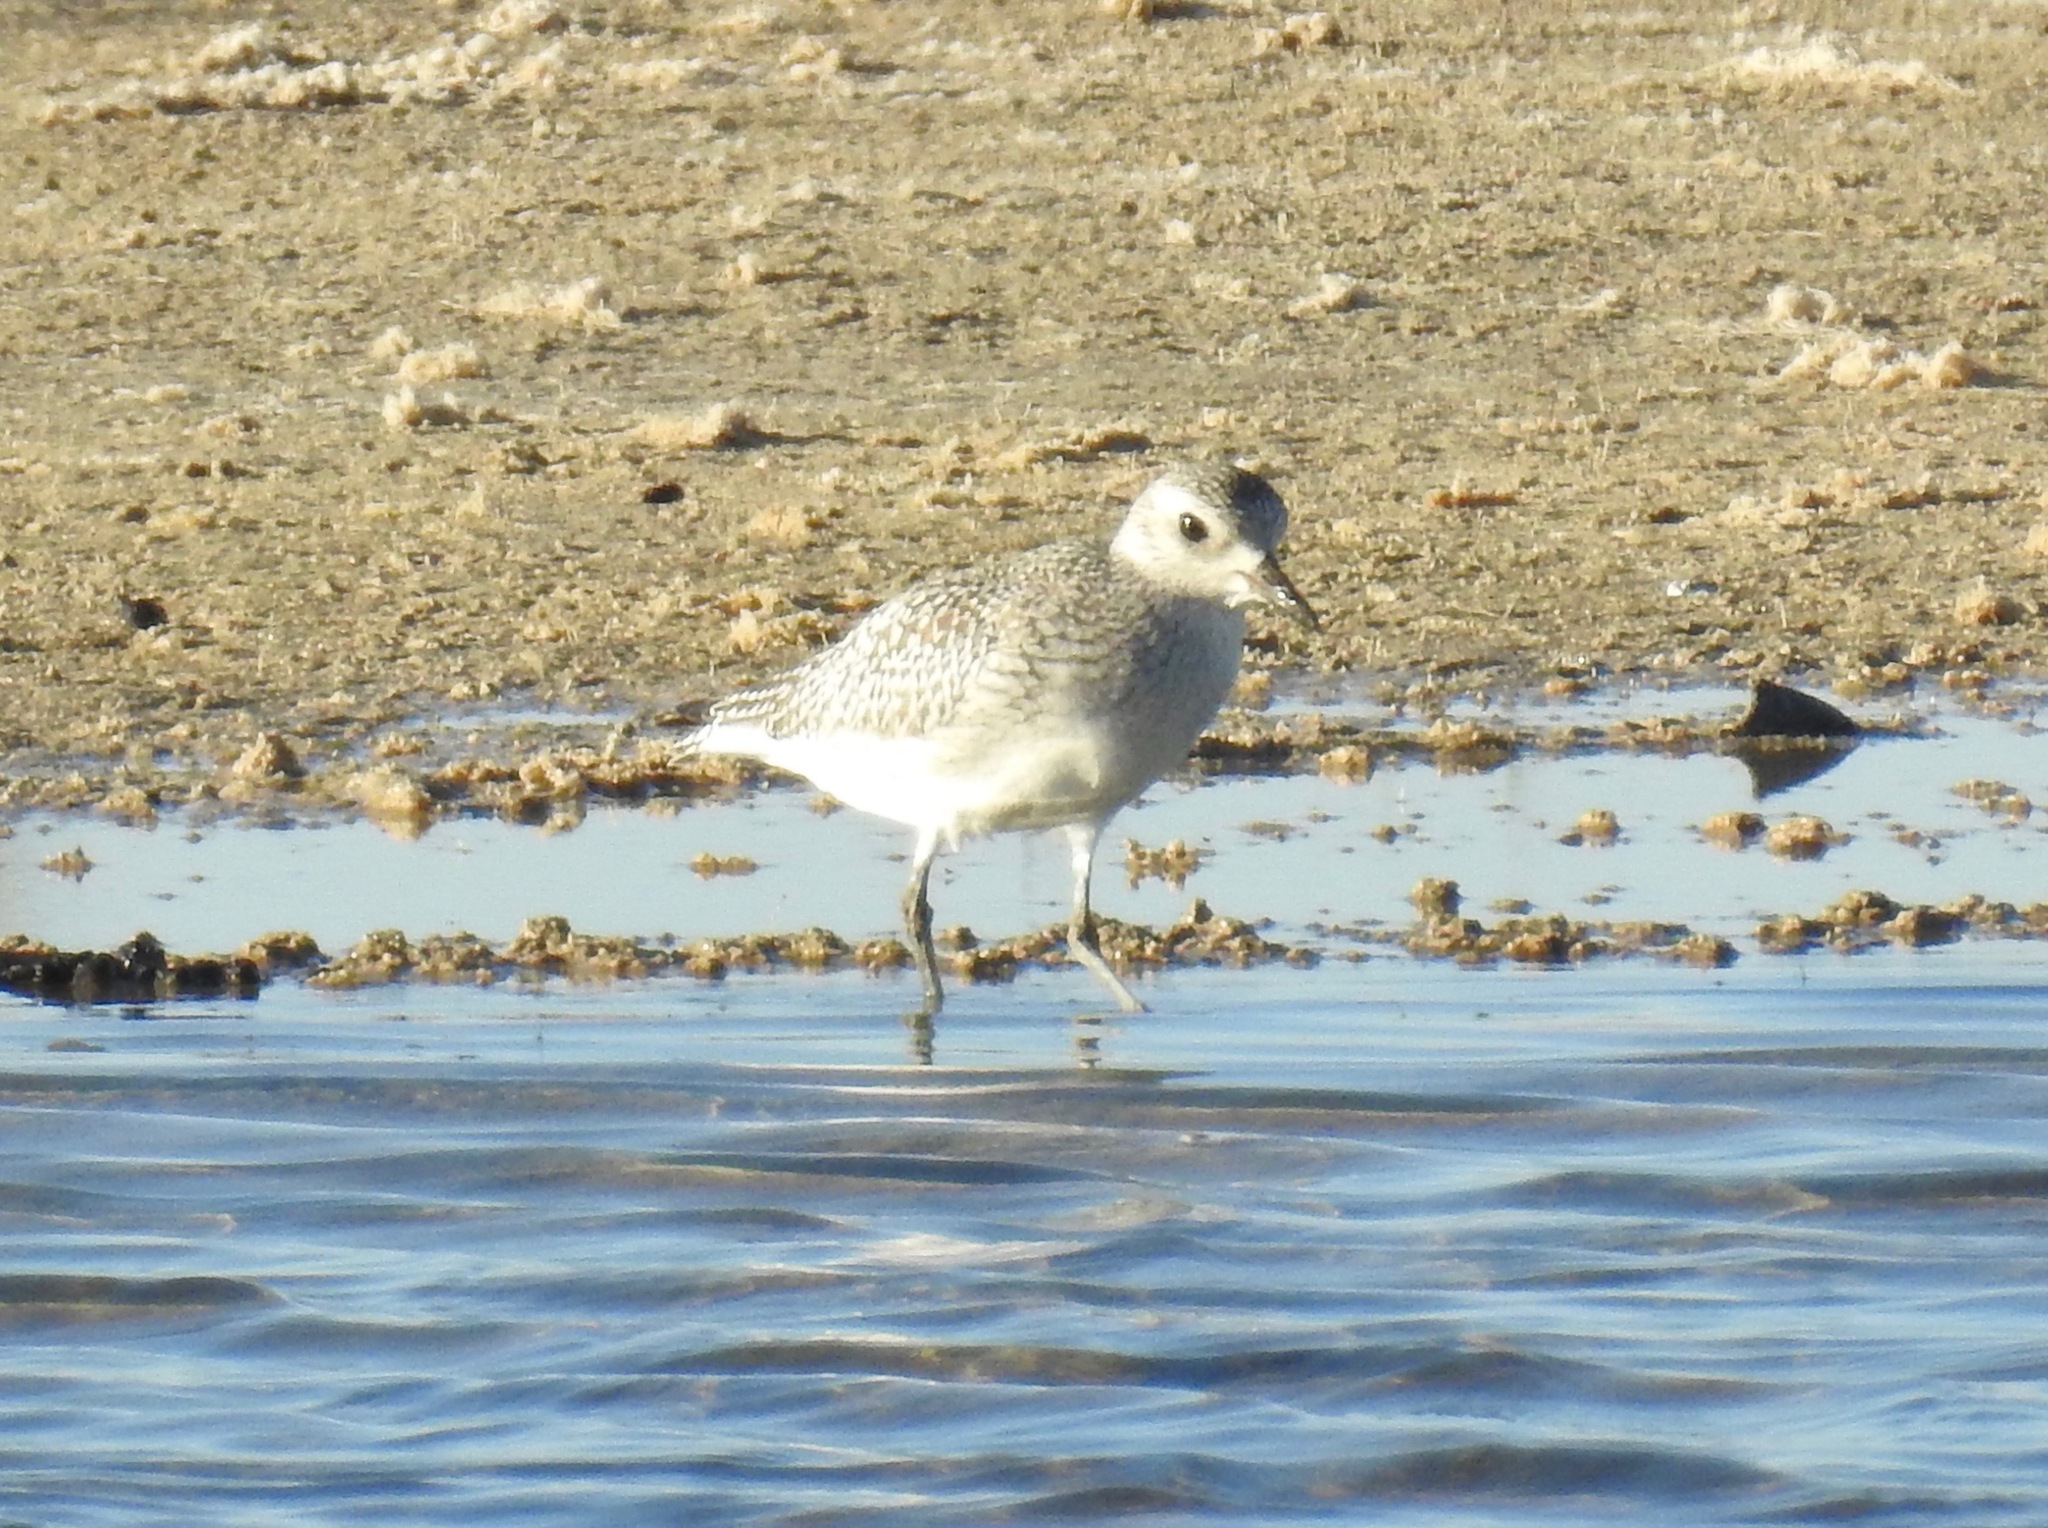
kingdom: Animalia
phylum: Chordata
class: Aves
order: Charadriiformes
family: Charadriidae
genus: Pluvialis
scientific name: Pluvialis squatarola
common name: Grey plover
